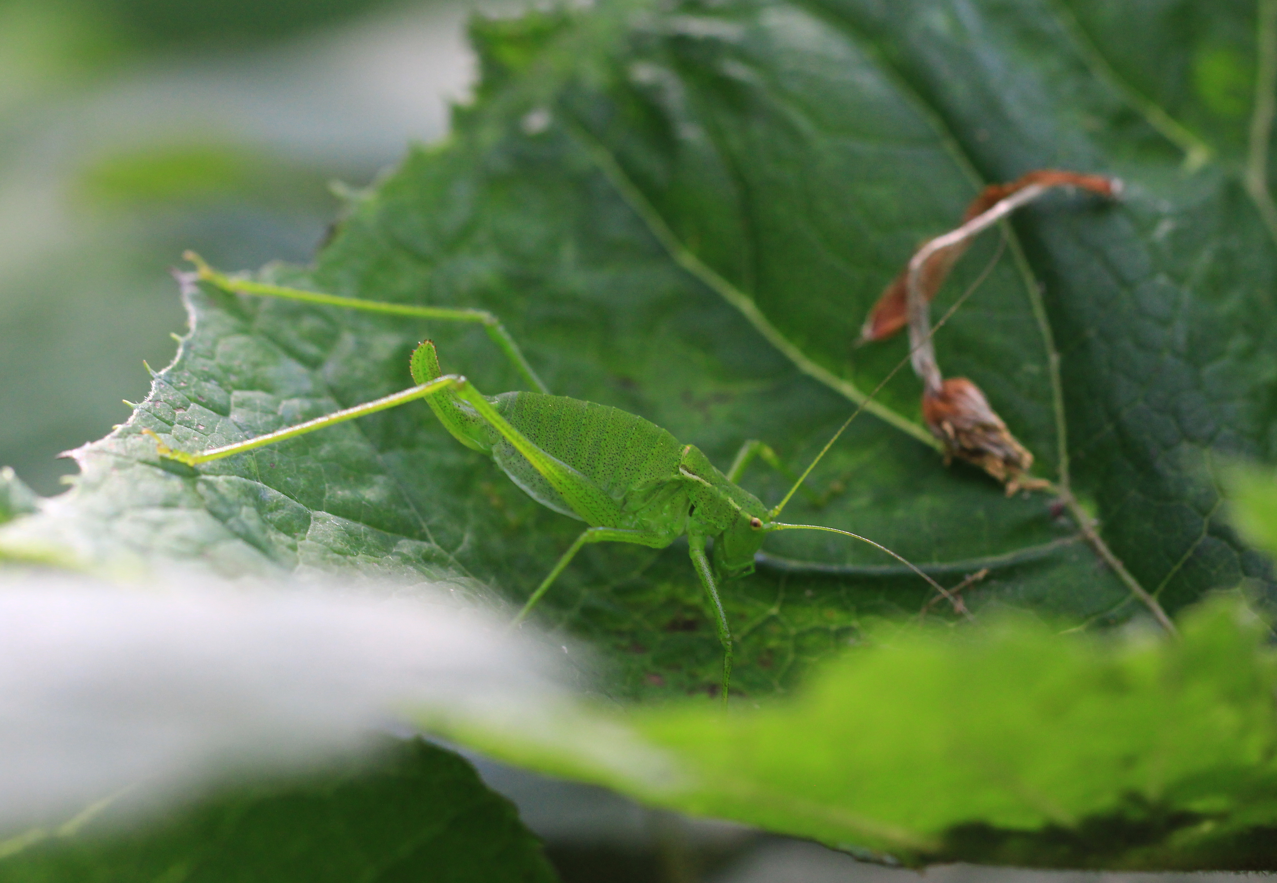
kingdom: Animalia
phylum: Arthropoda
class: Insecta
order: Orthoptera
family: Tettigoniidae
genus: Isophya
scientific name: Isophya brevicauda
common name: Short-tailed plump bush-cricket
